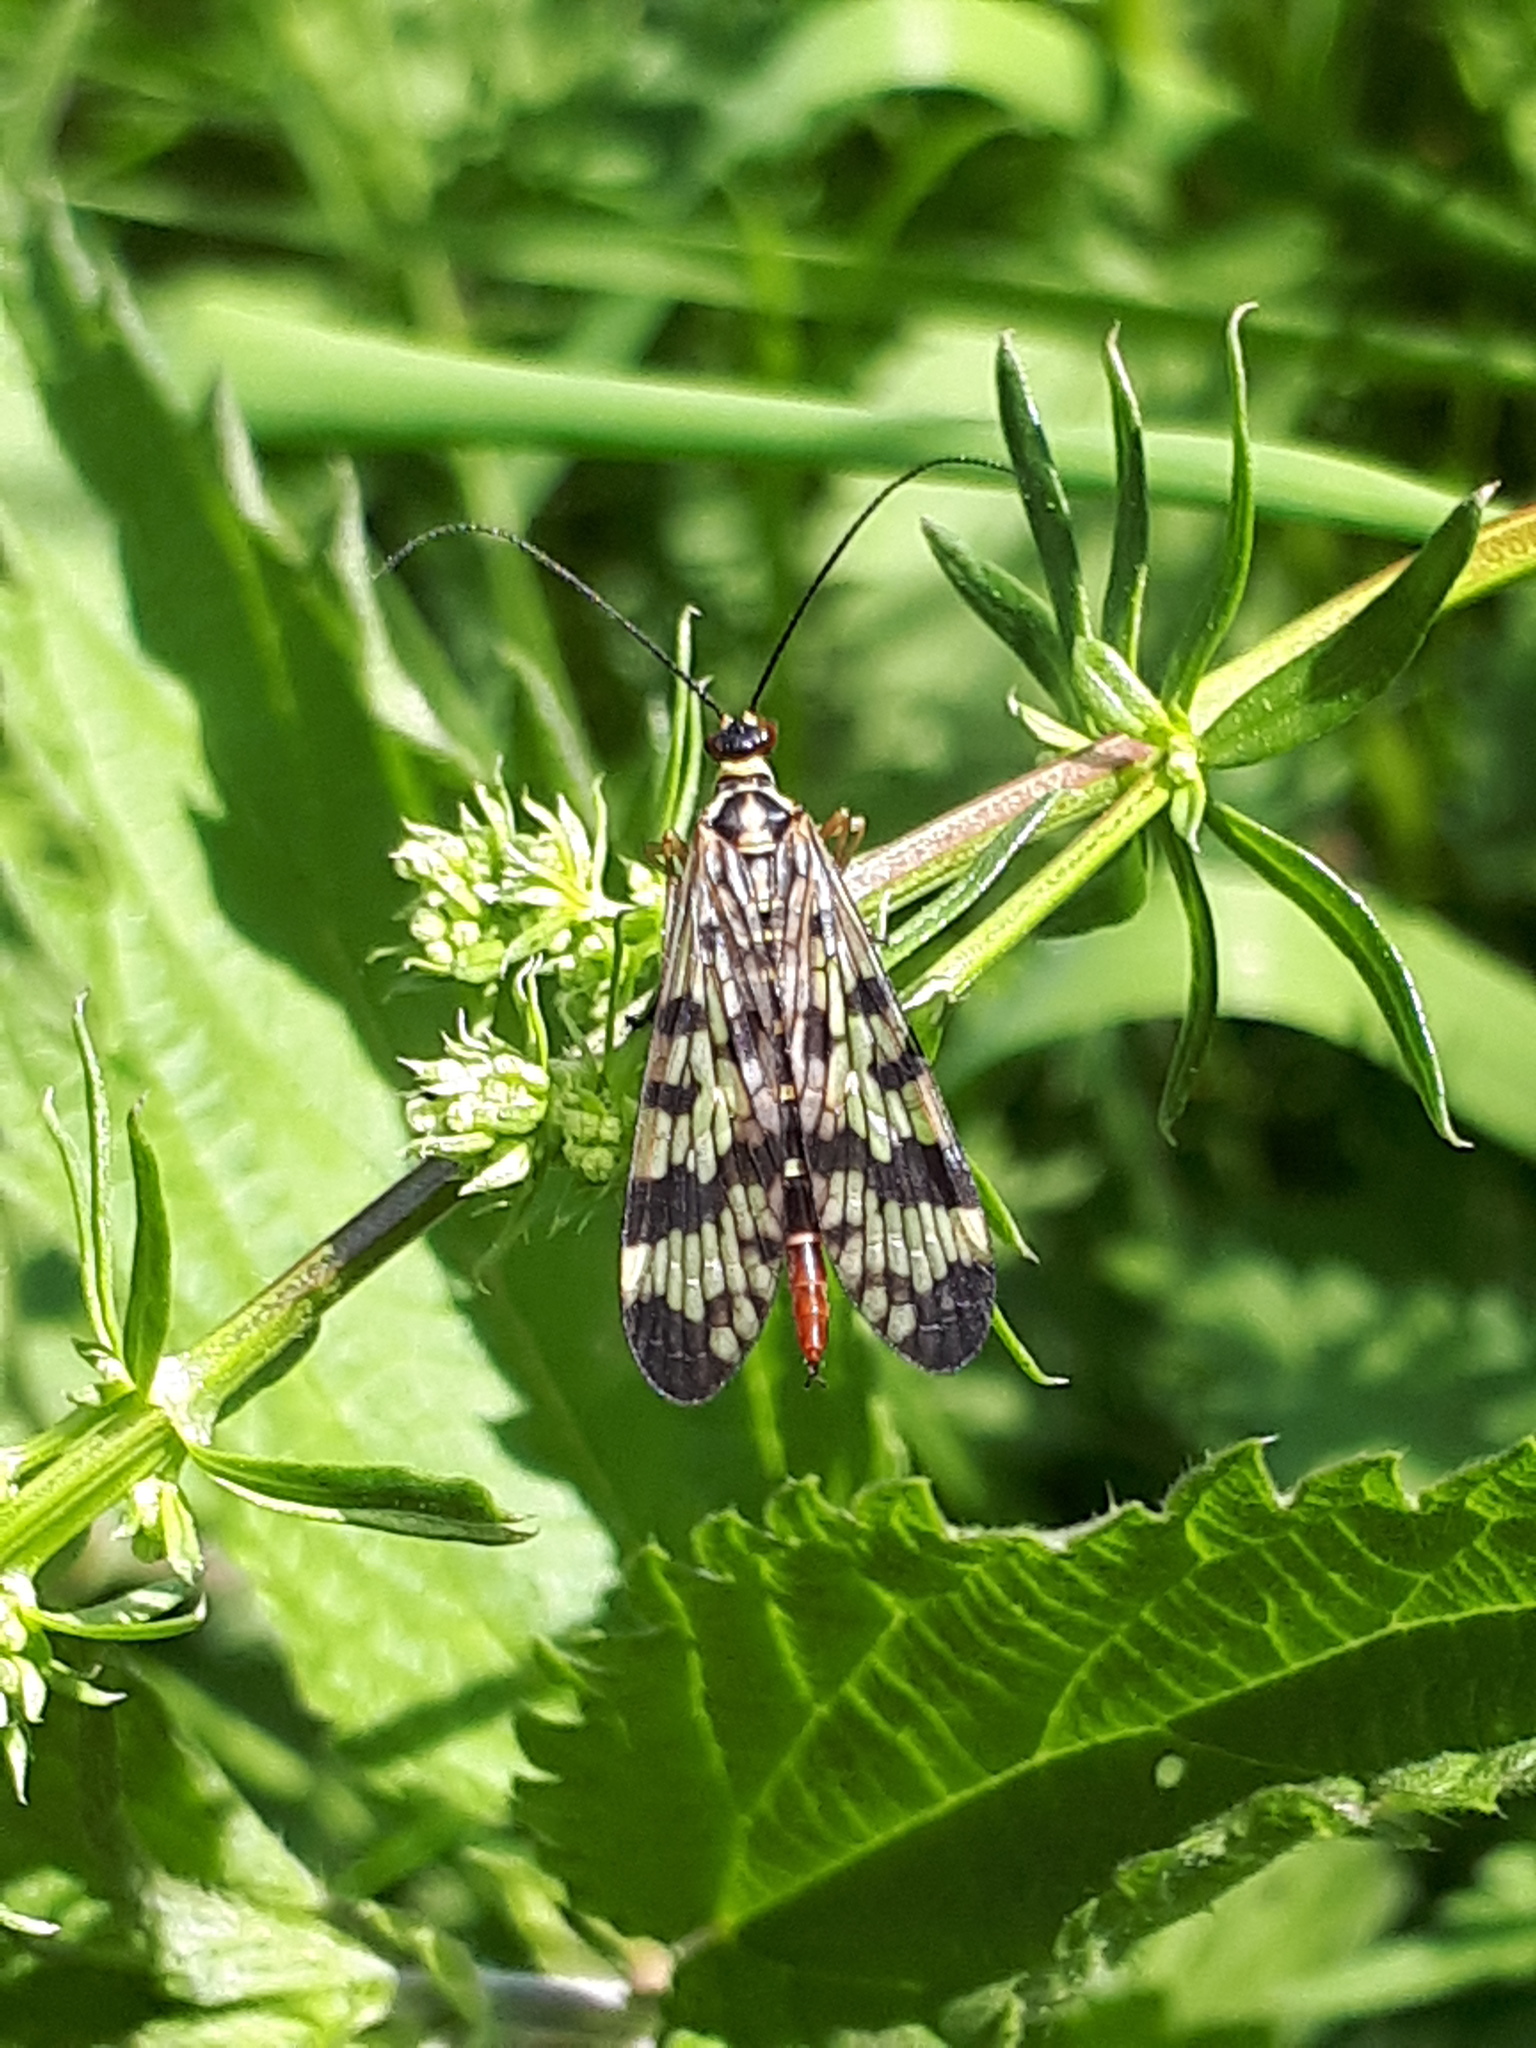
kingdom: Animalia
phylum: Arthropoda
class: Insecta
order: Mecoptera
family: Panorpidae
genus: Panorpa
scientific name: Panorpa communis
